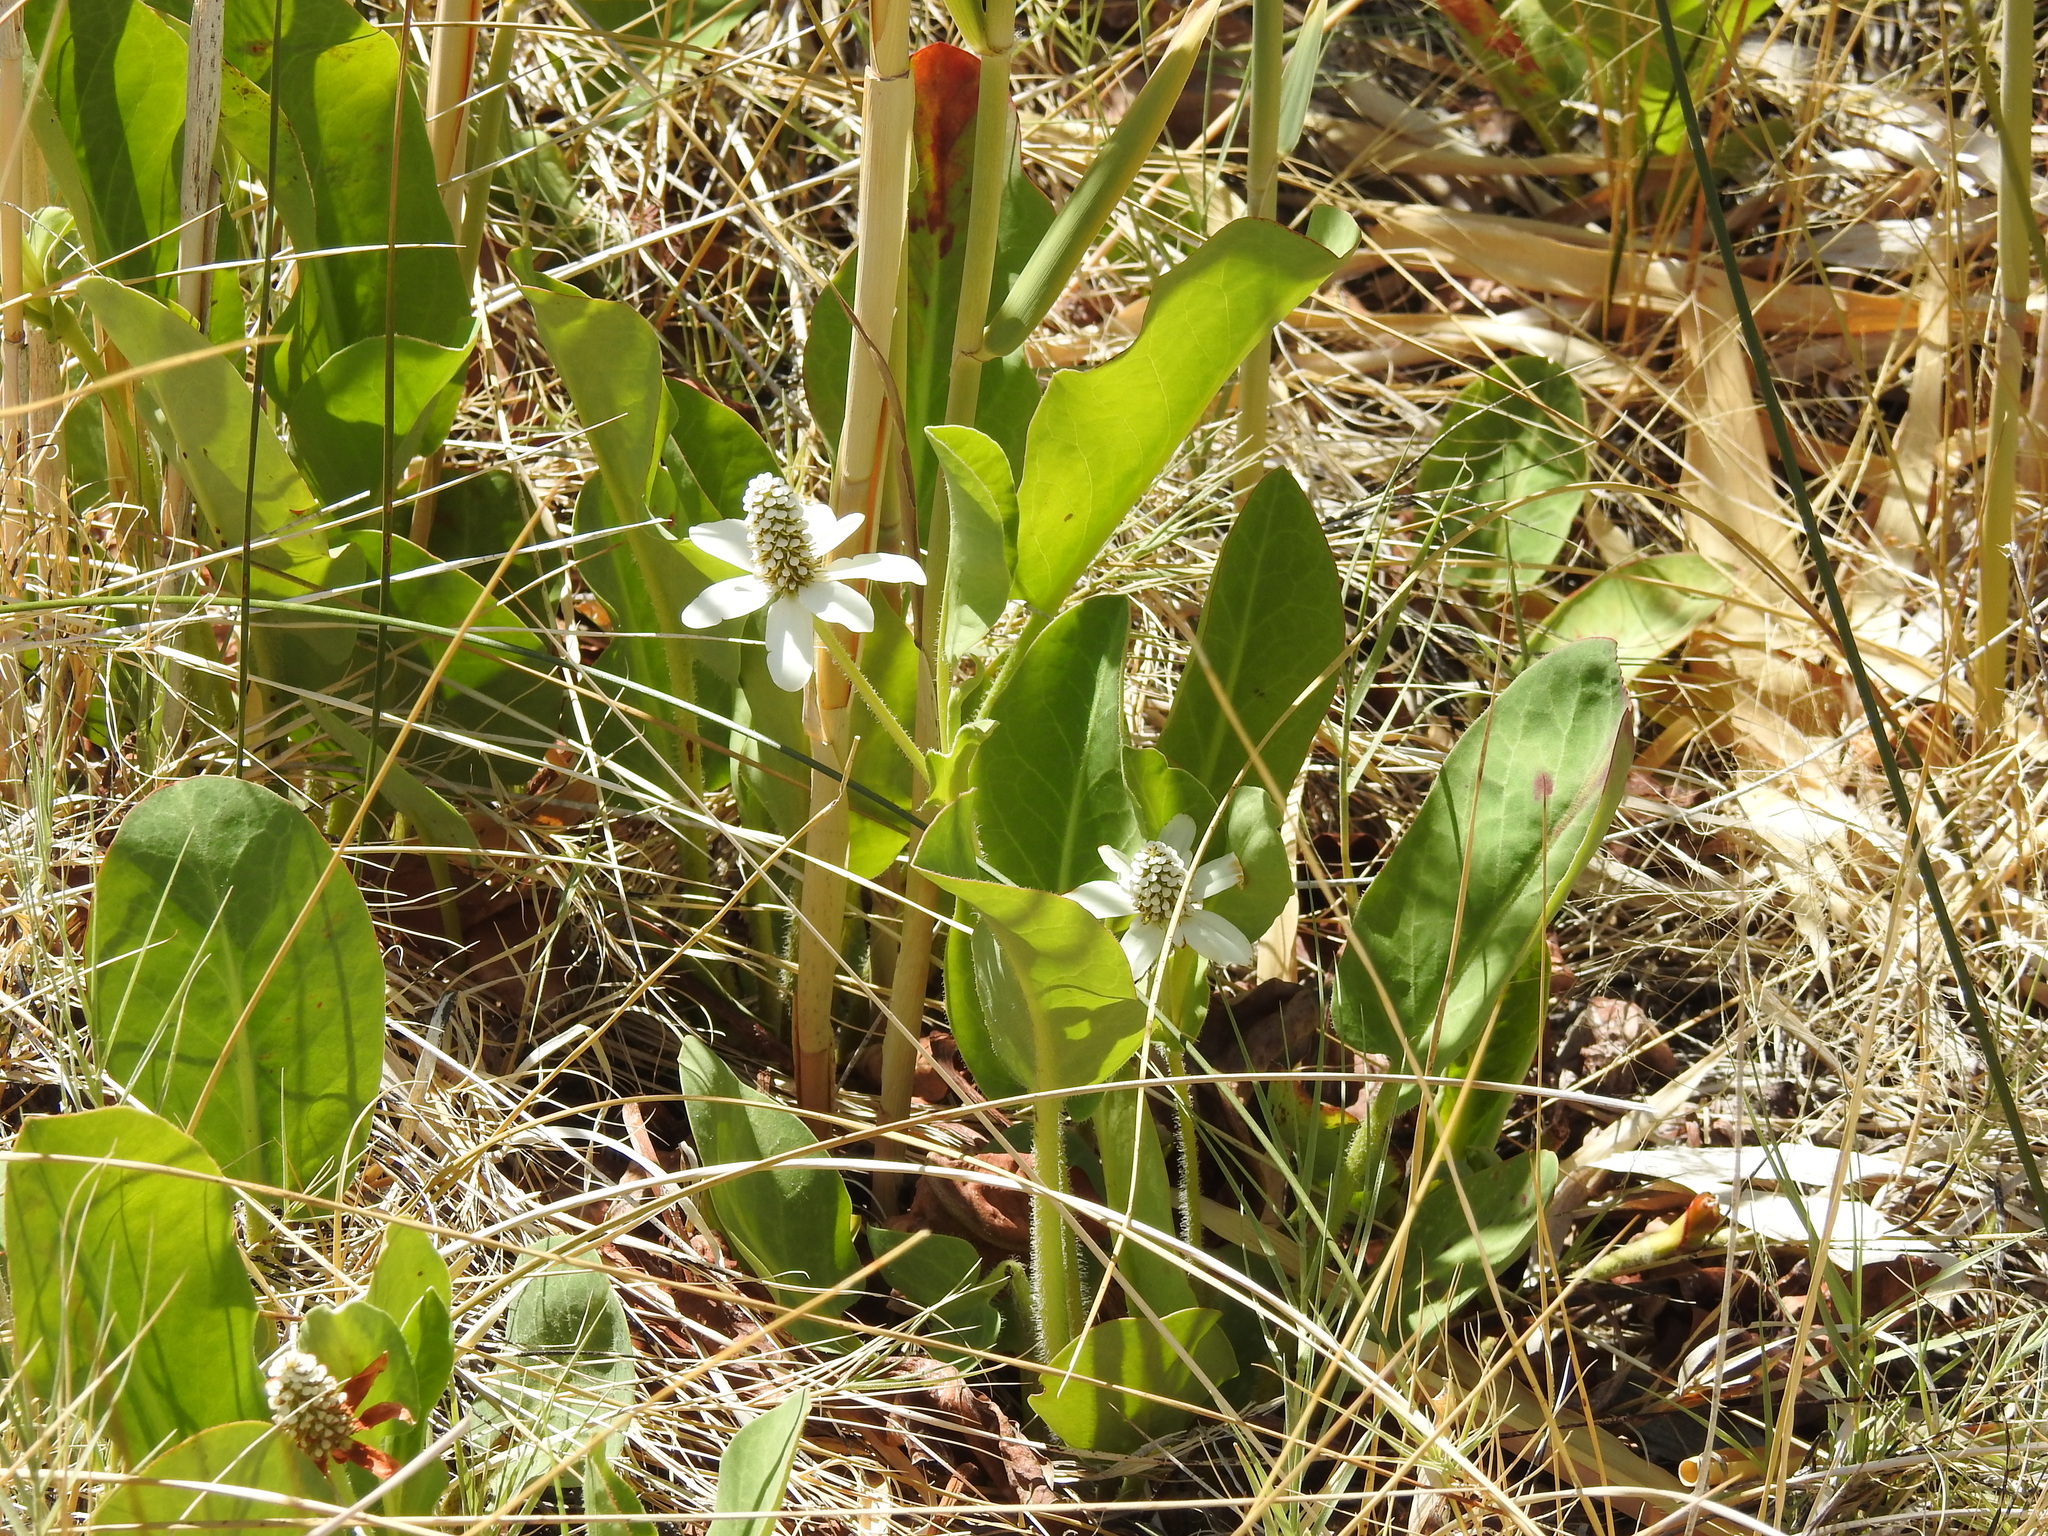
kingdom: Plantae
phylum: Tracheophyta
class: Magnoliopsida
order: Piperales
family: Saururaceae
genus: Anemopsis
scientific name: Anemopsis californica
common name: Apache-beads
